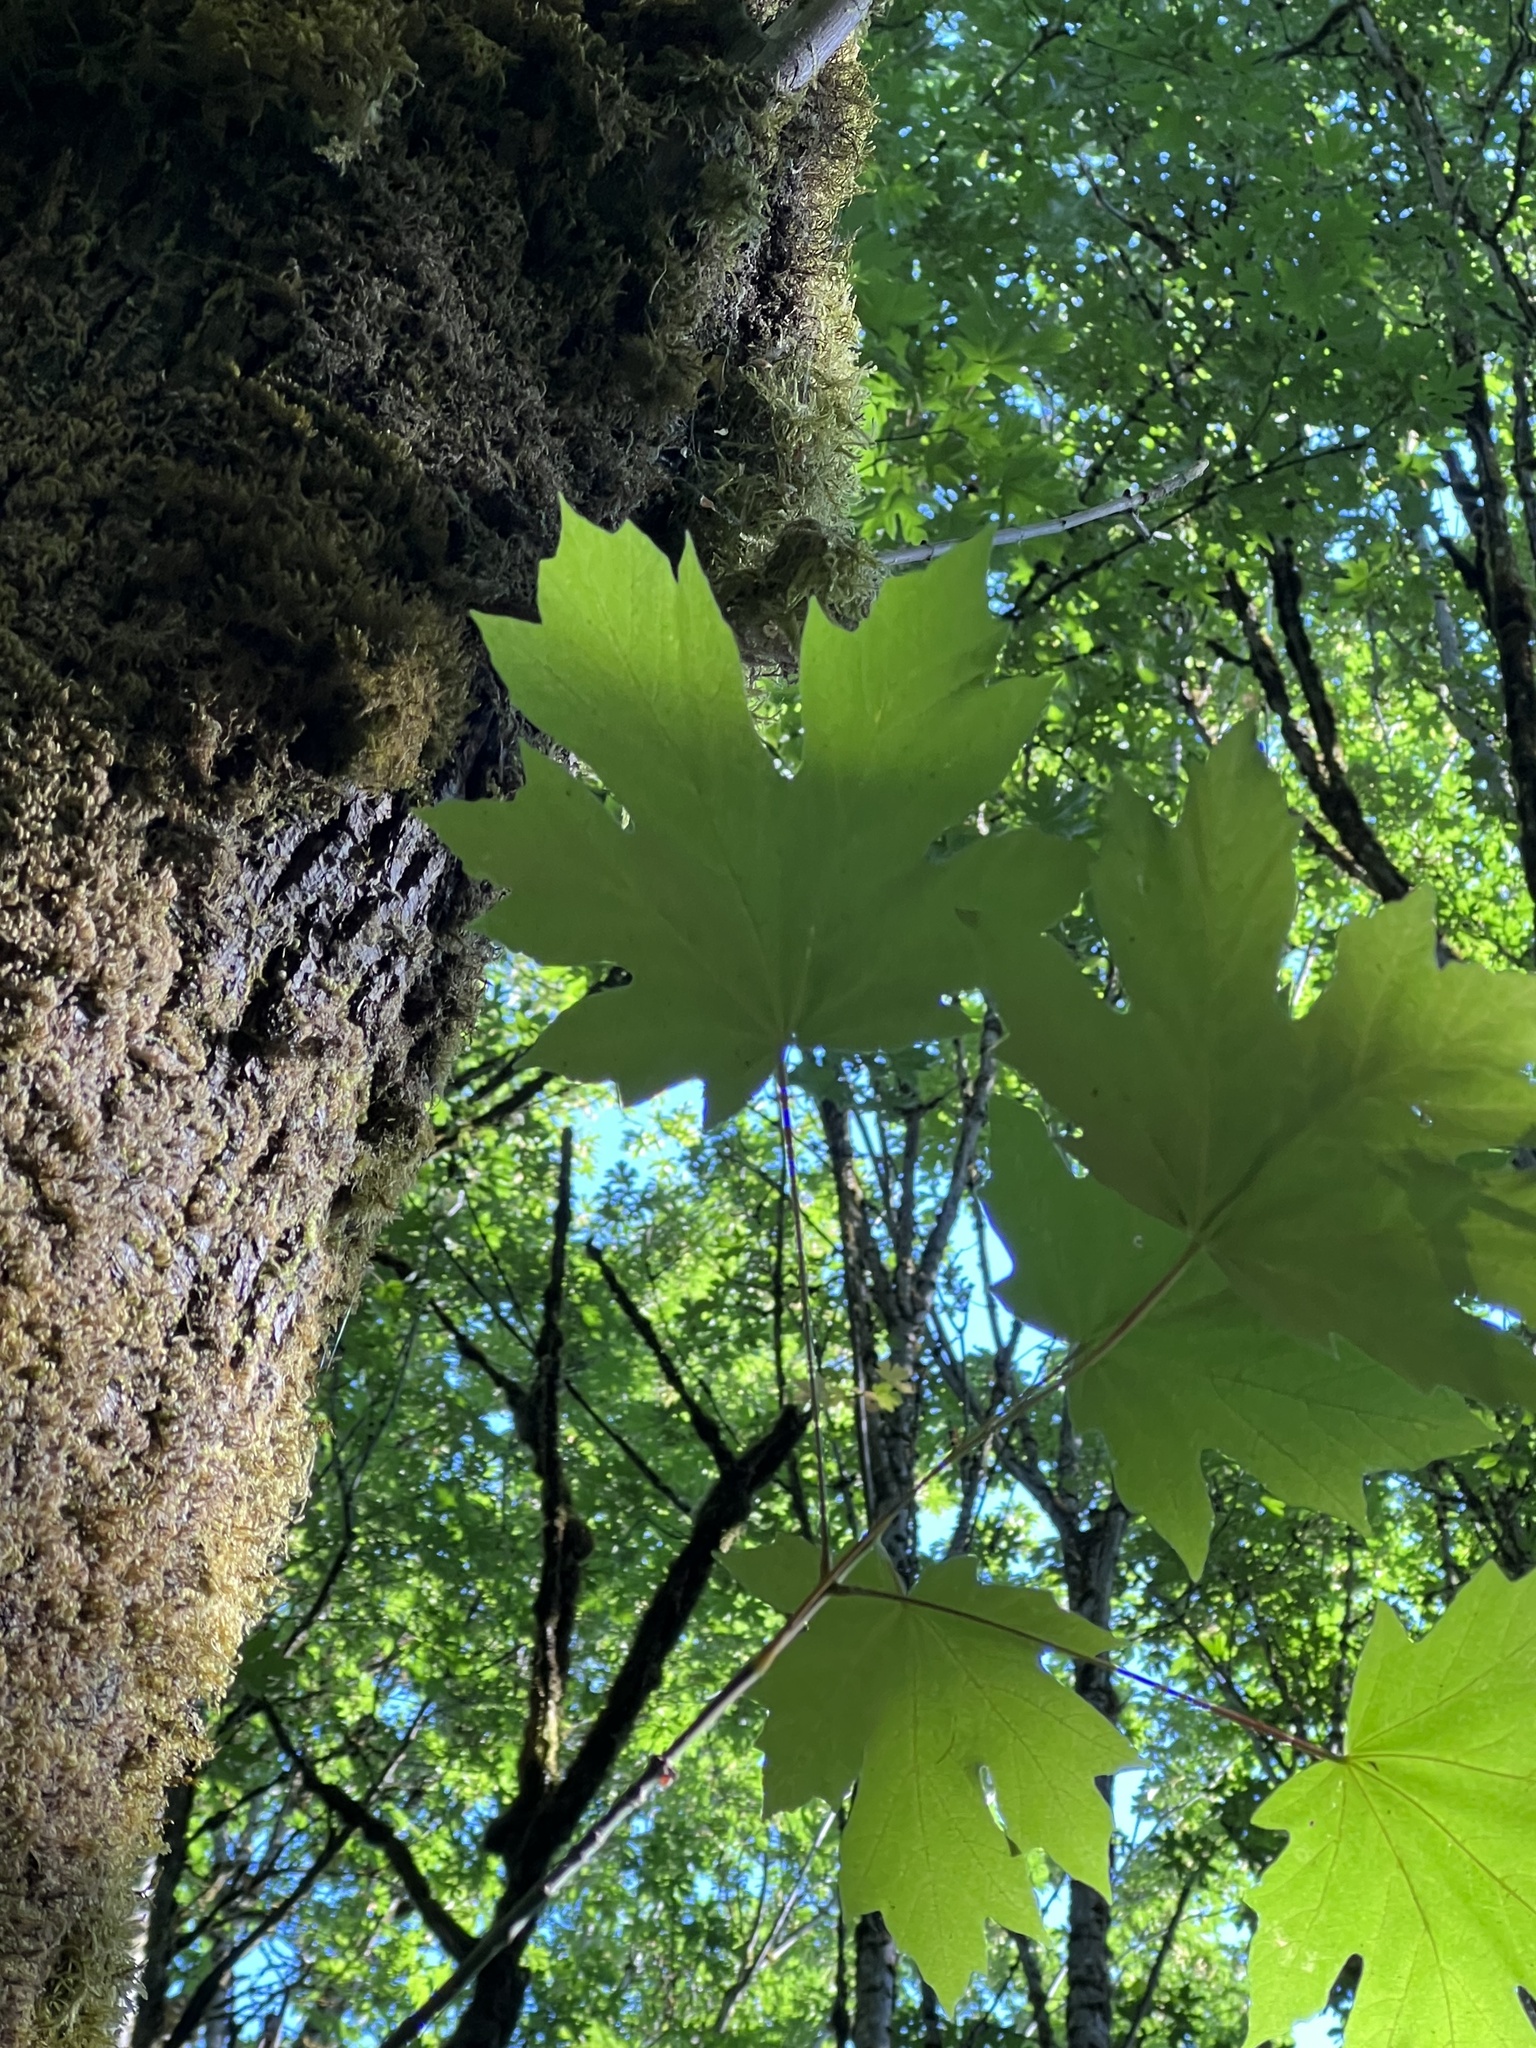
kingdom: Plantae
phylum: Tracheophyta
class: Magnoliopsida
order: Sapindales
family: Sapindaceae
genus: Acer
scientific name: Acer macrophyllum
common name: Oregon maple
